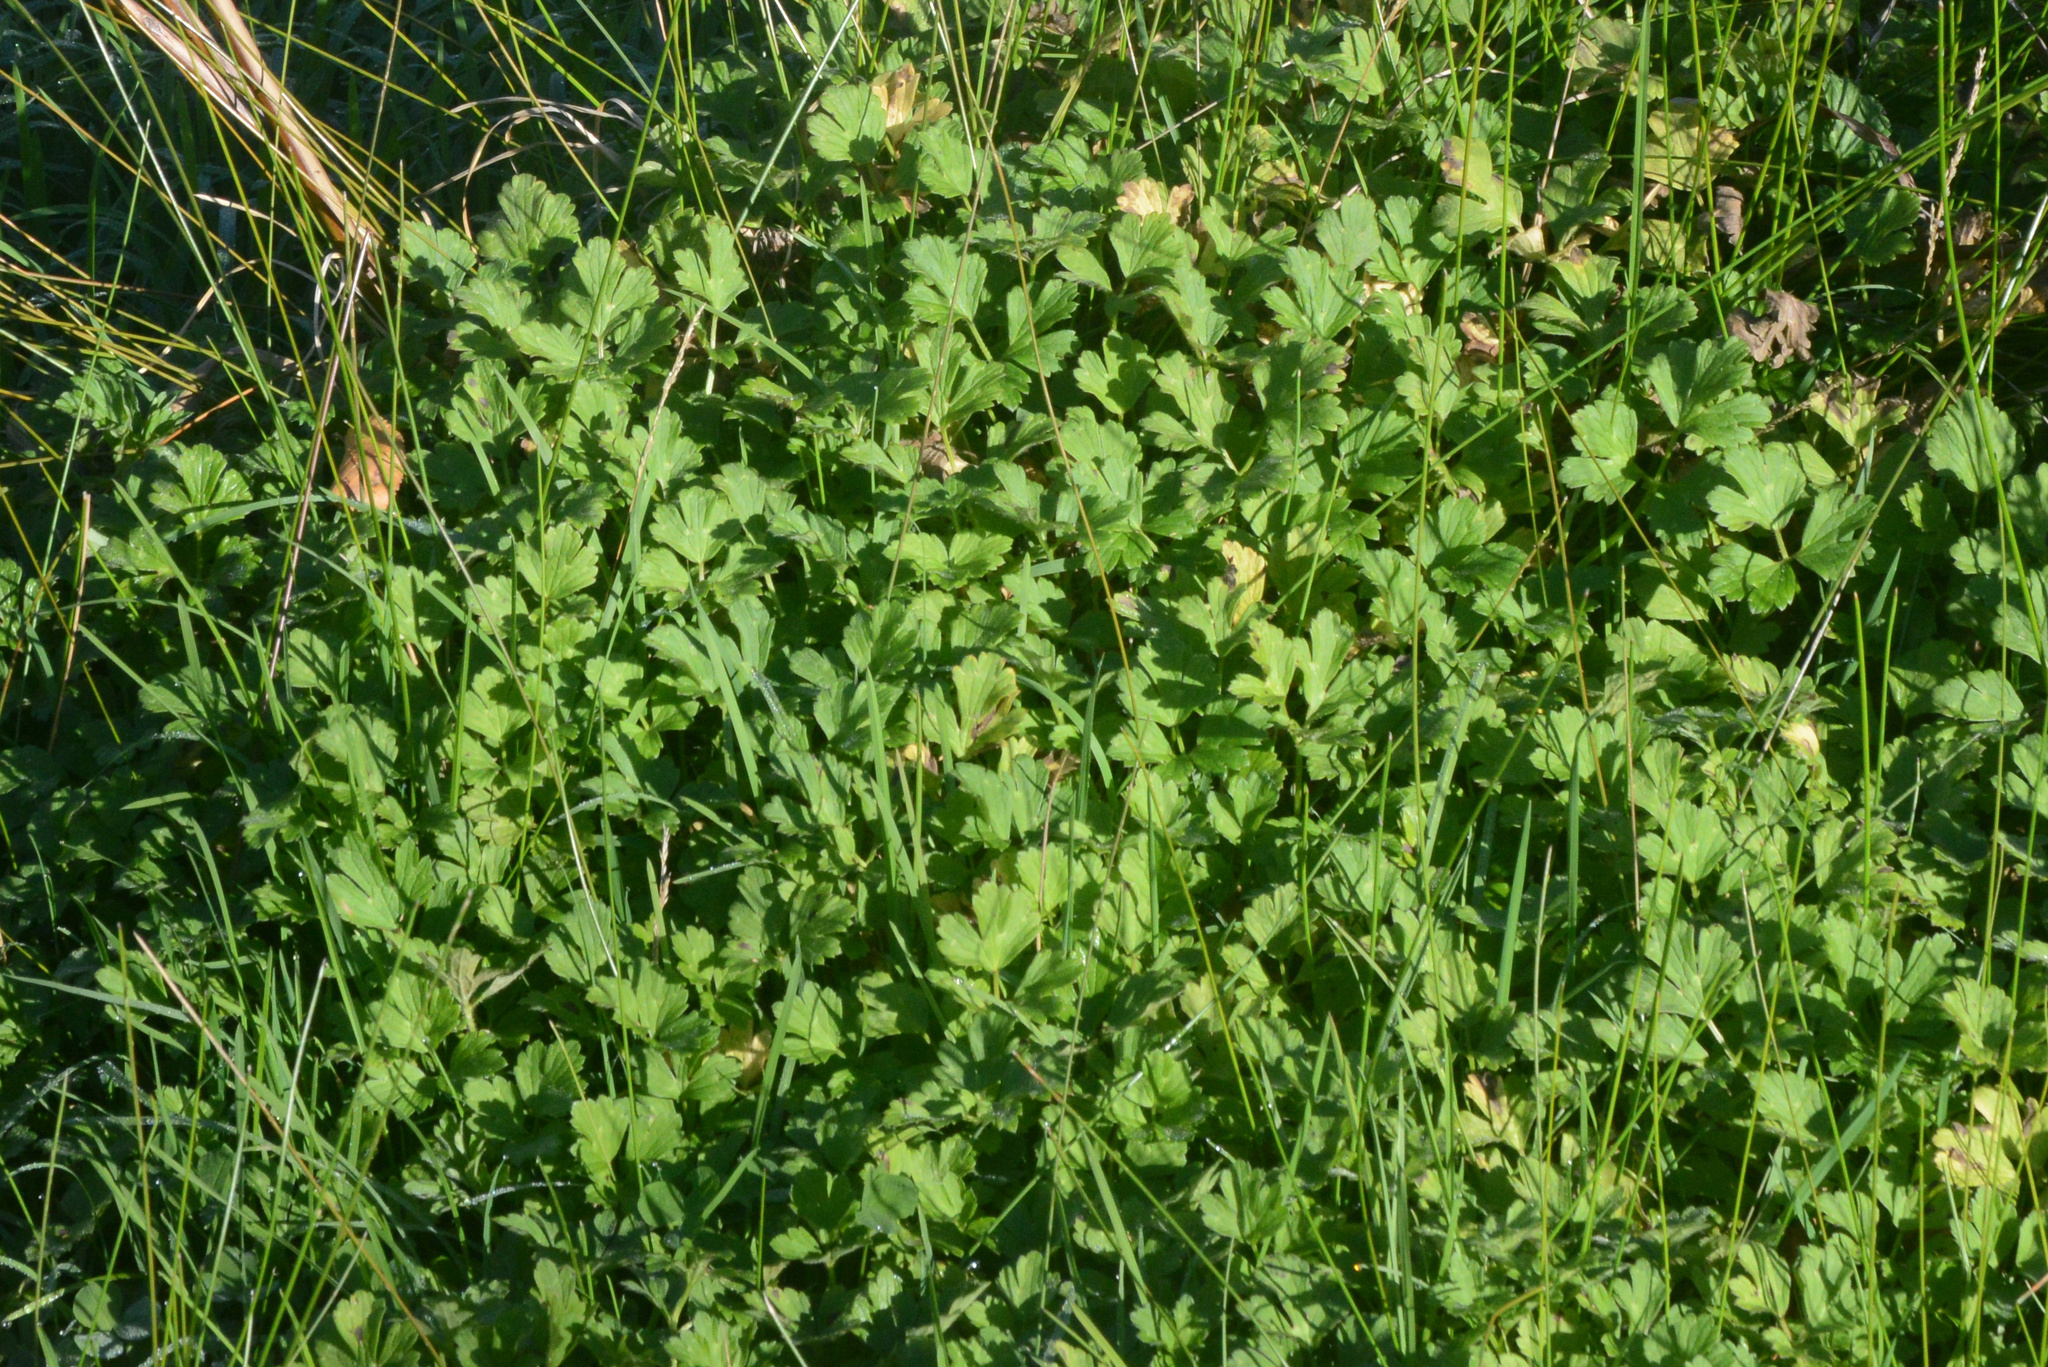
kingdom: Plantae
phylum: Tracheophyta
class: Magnoliopsida
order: Ranunculales
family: Ranunculaceae
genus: Ranunculus
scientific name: Ranunculus repens
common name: Creeping buttercup
